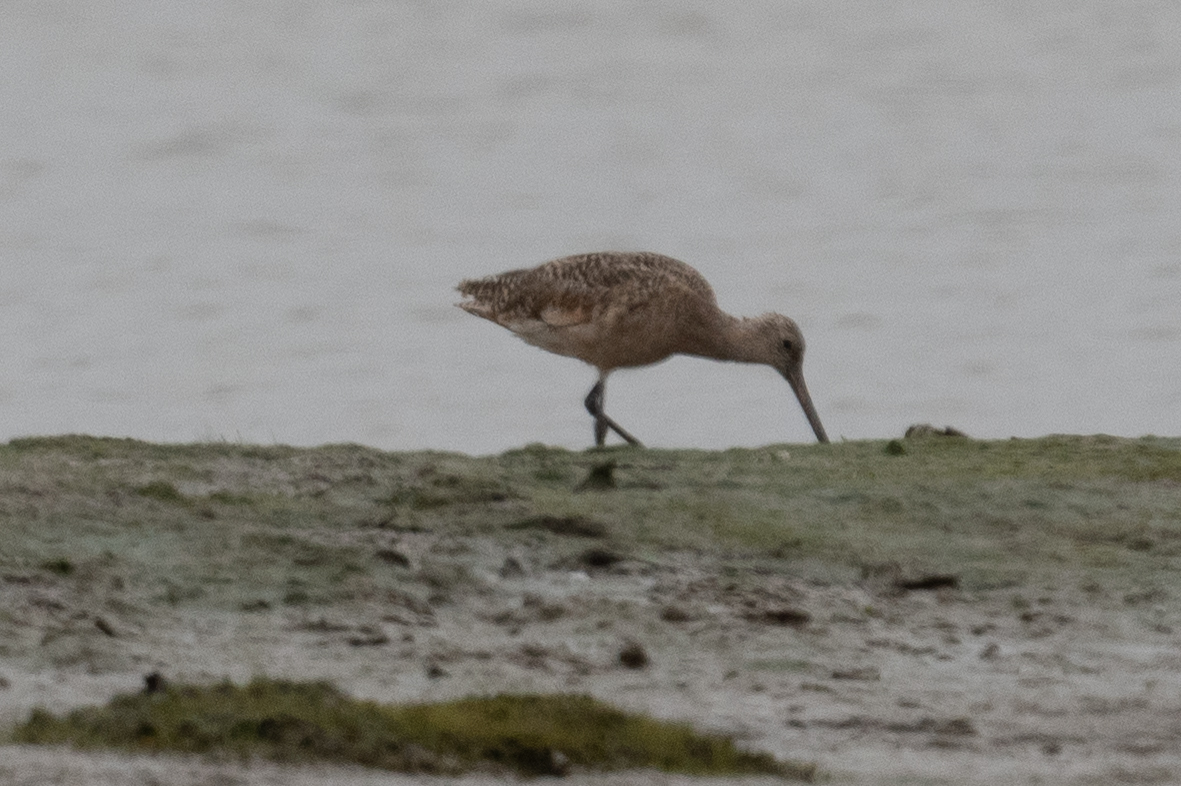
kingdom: Animalia
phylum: Chordata
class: Aves
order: Charadriiformes
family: Scolopacidae
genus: Limosa
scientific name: Limosa fedoa
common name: Marbled godwit
